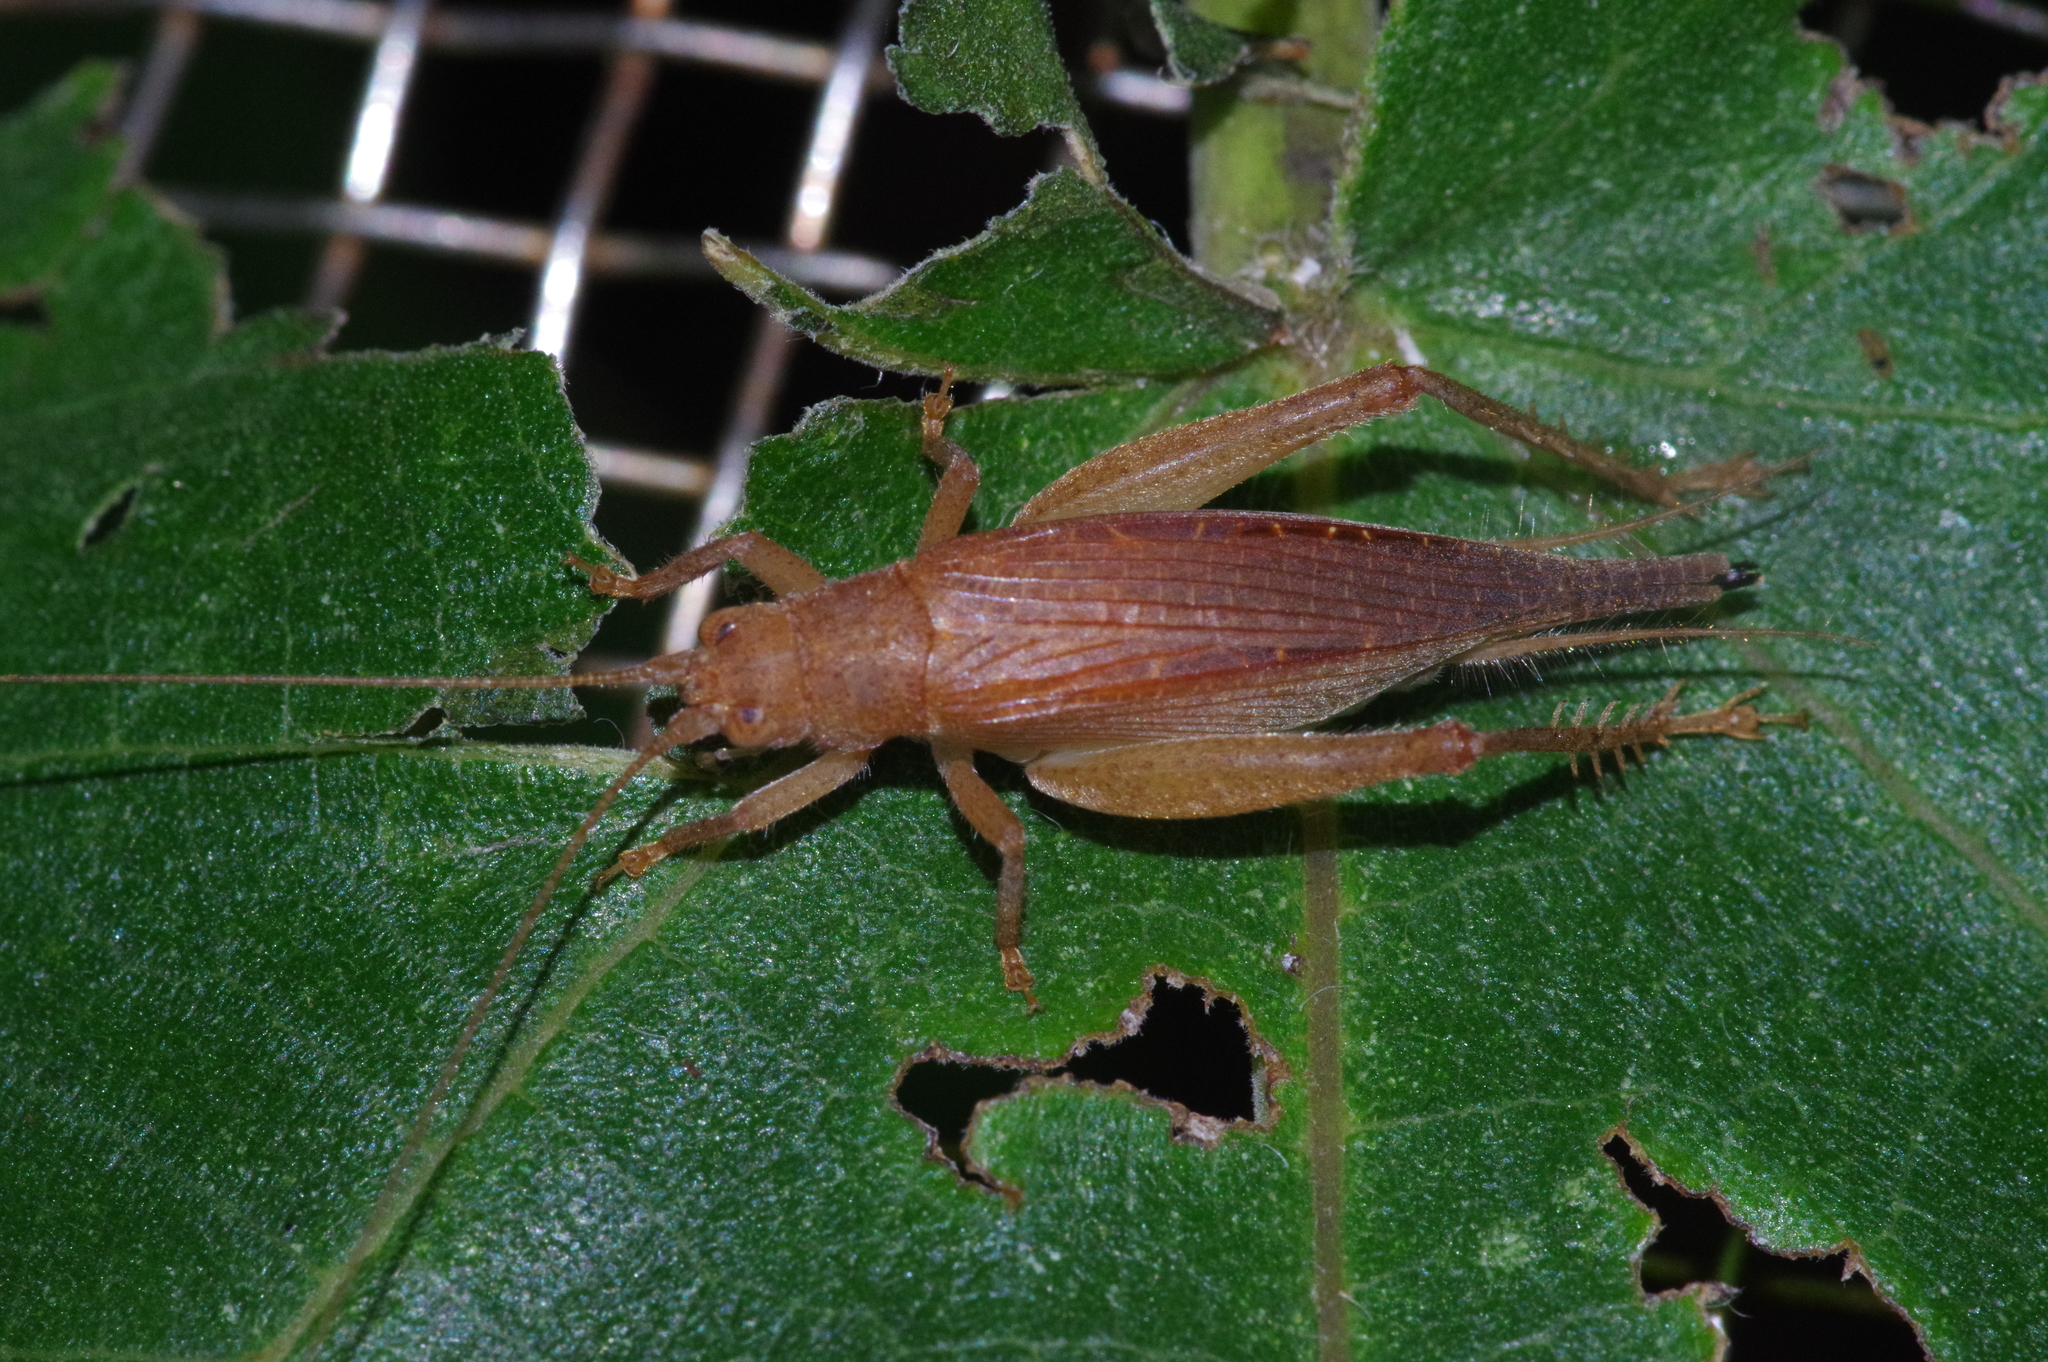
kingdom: Animalia
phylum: Arthropoda
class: Insecta
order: Orthoptera
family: Gryllidae
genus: Aphonoides
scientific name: Aphonoides rufescens
